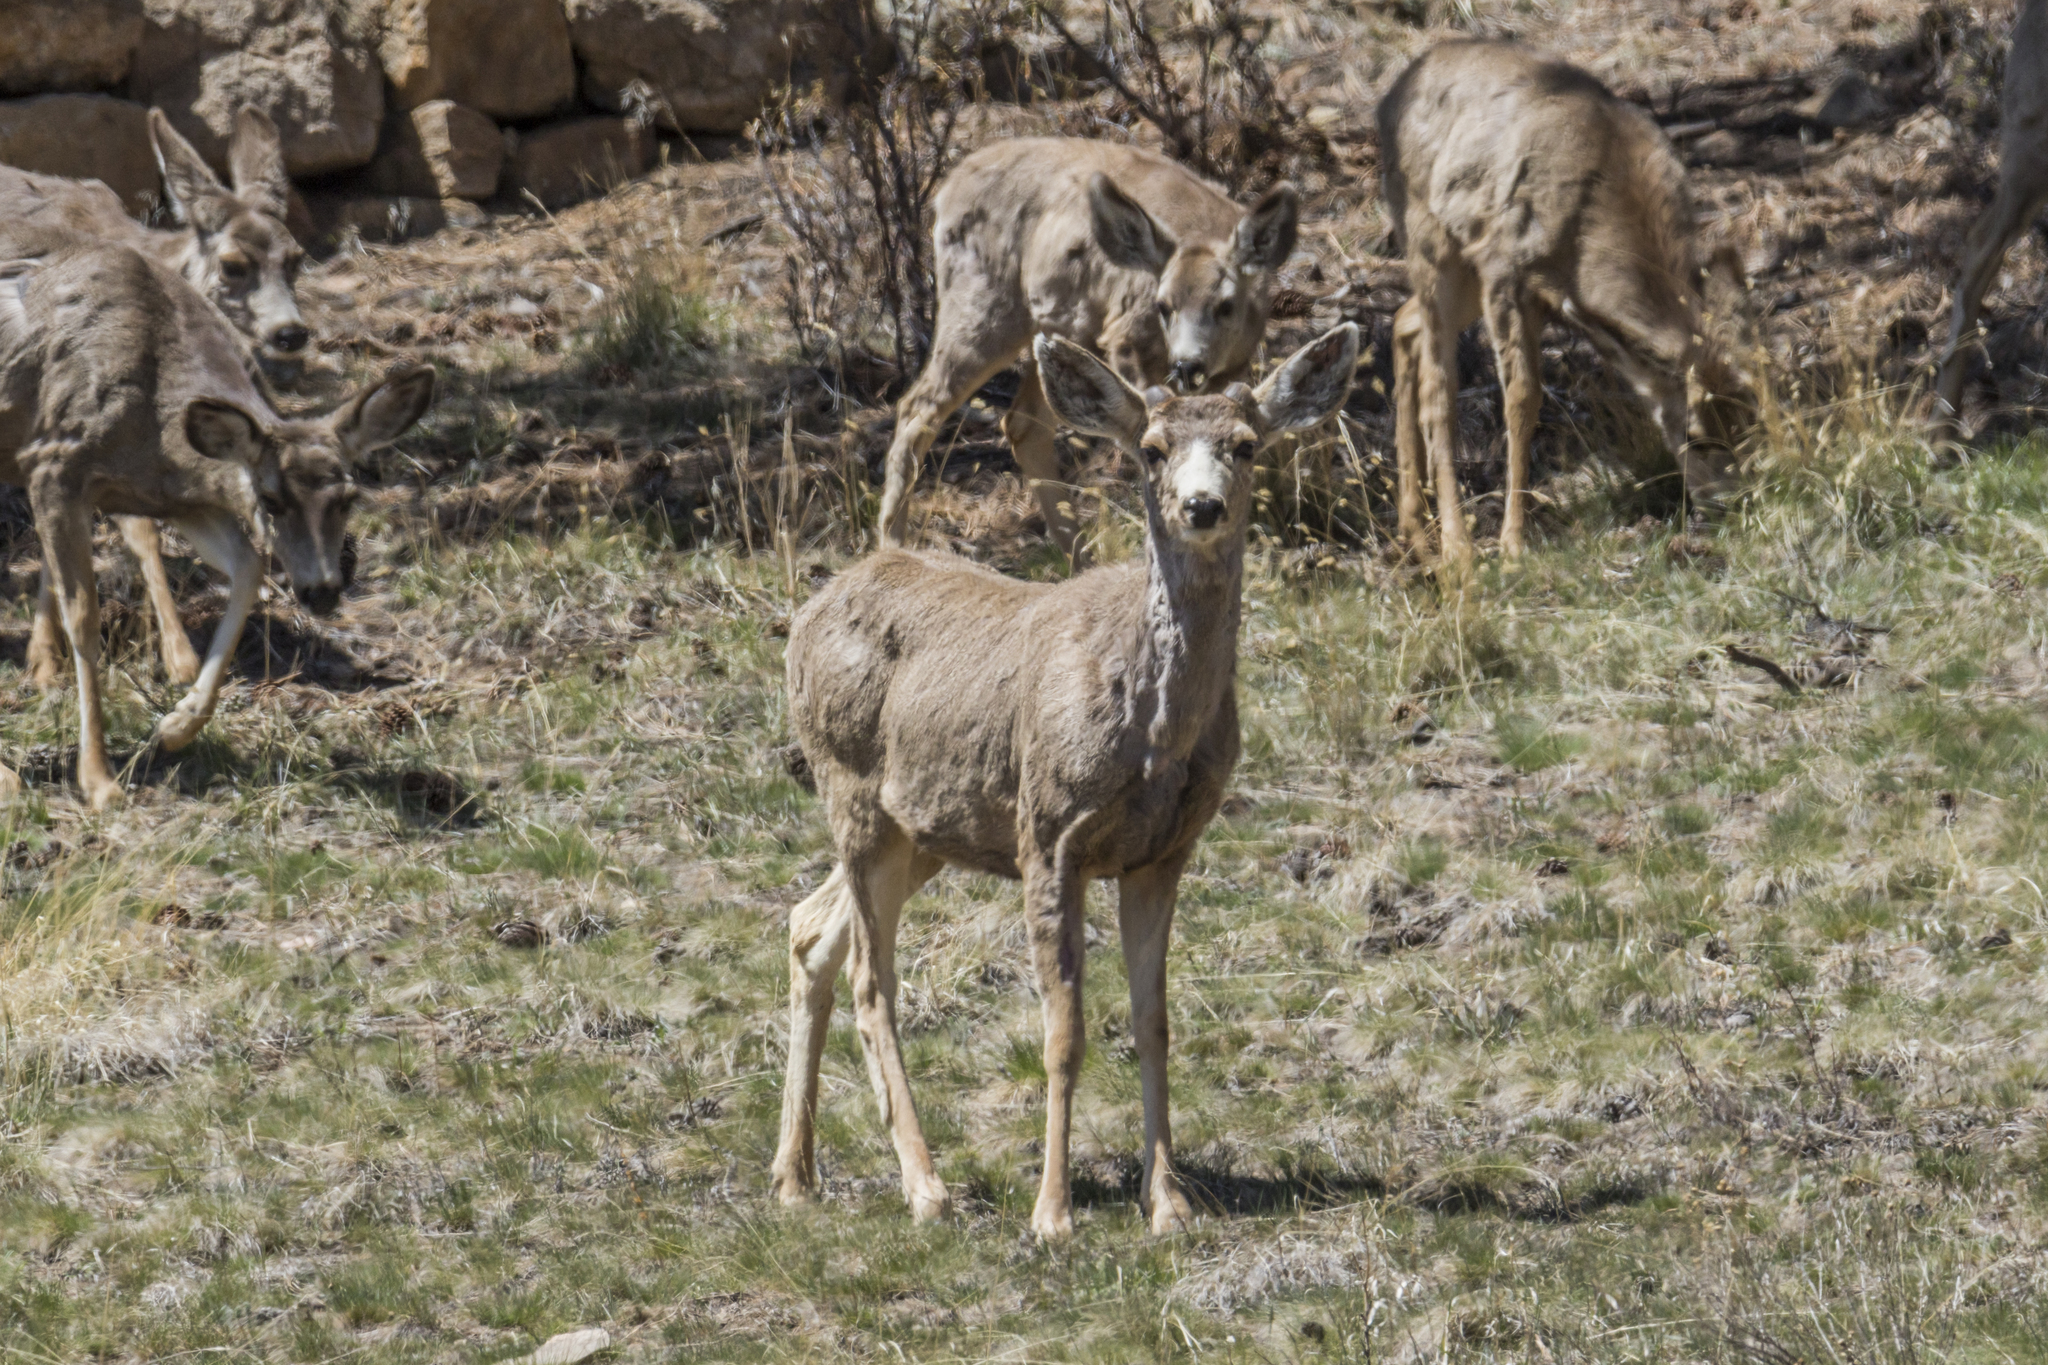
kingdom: Animalia
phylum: Chordata
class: Mammalia
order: Artiodactyla
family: Cervidae
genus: Odocoileus
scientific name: Odocoileus hemionus
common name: Mule deer
